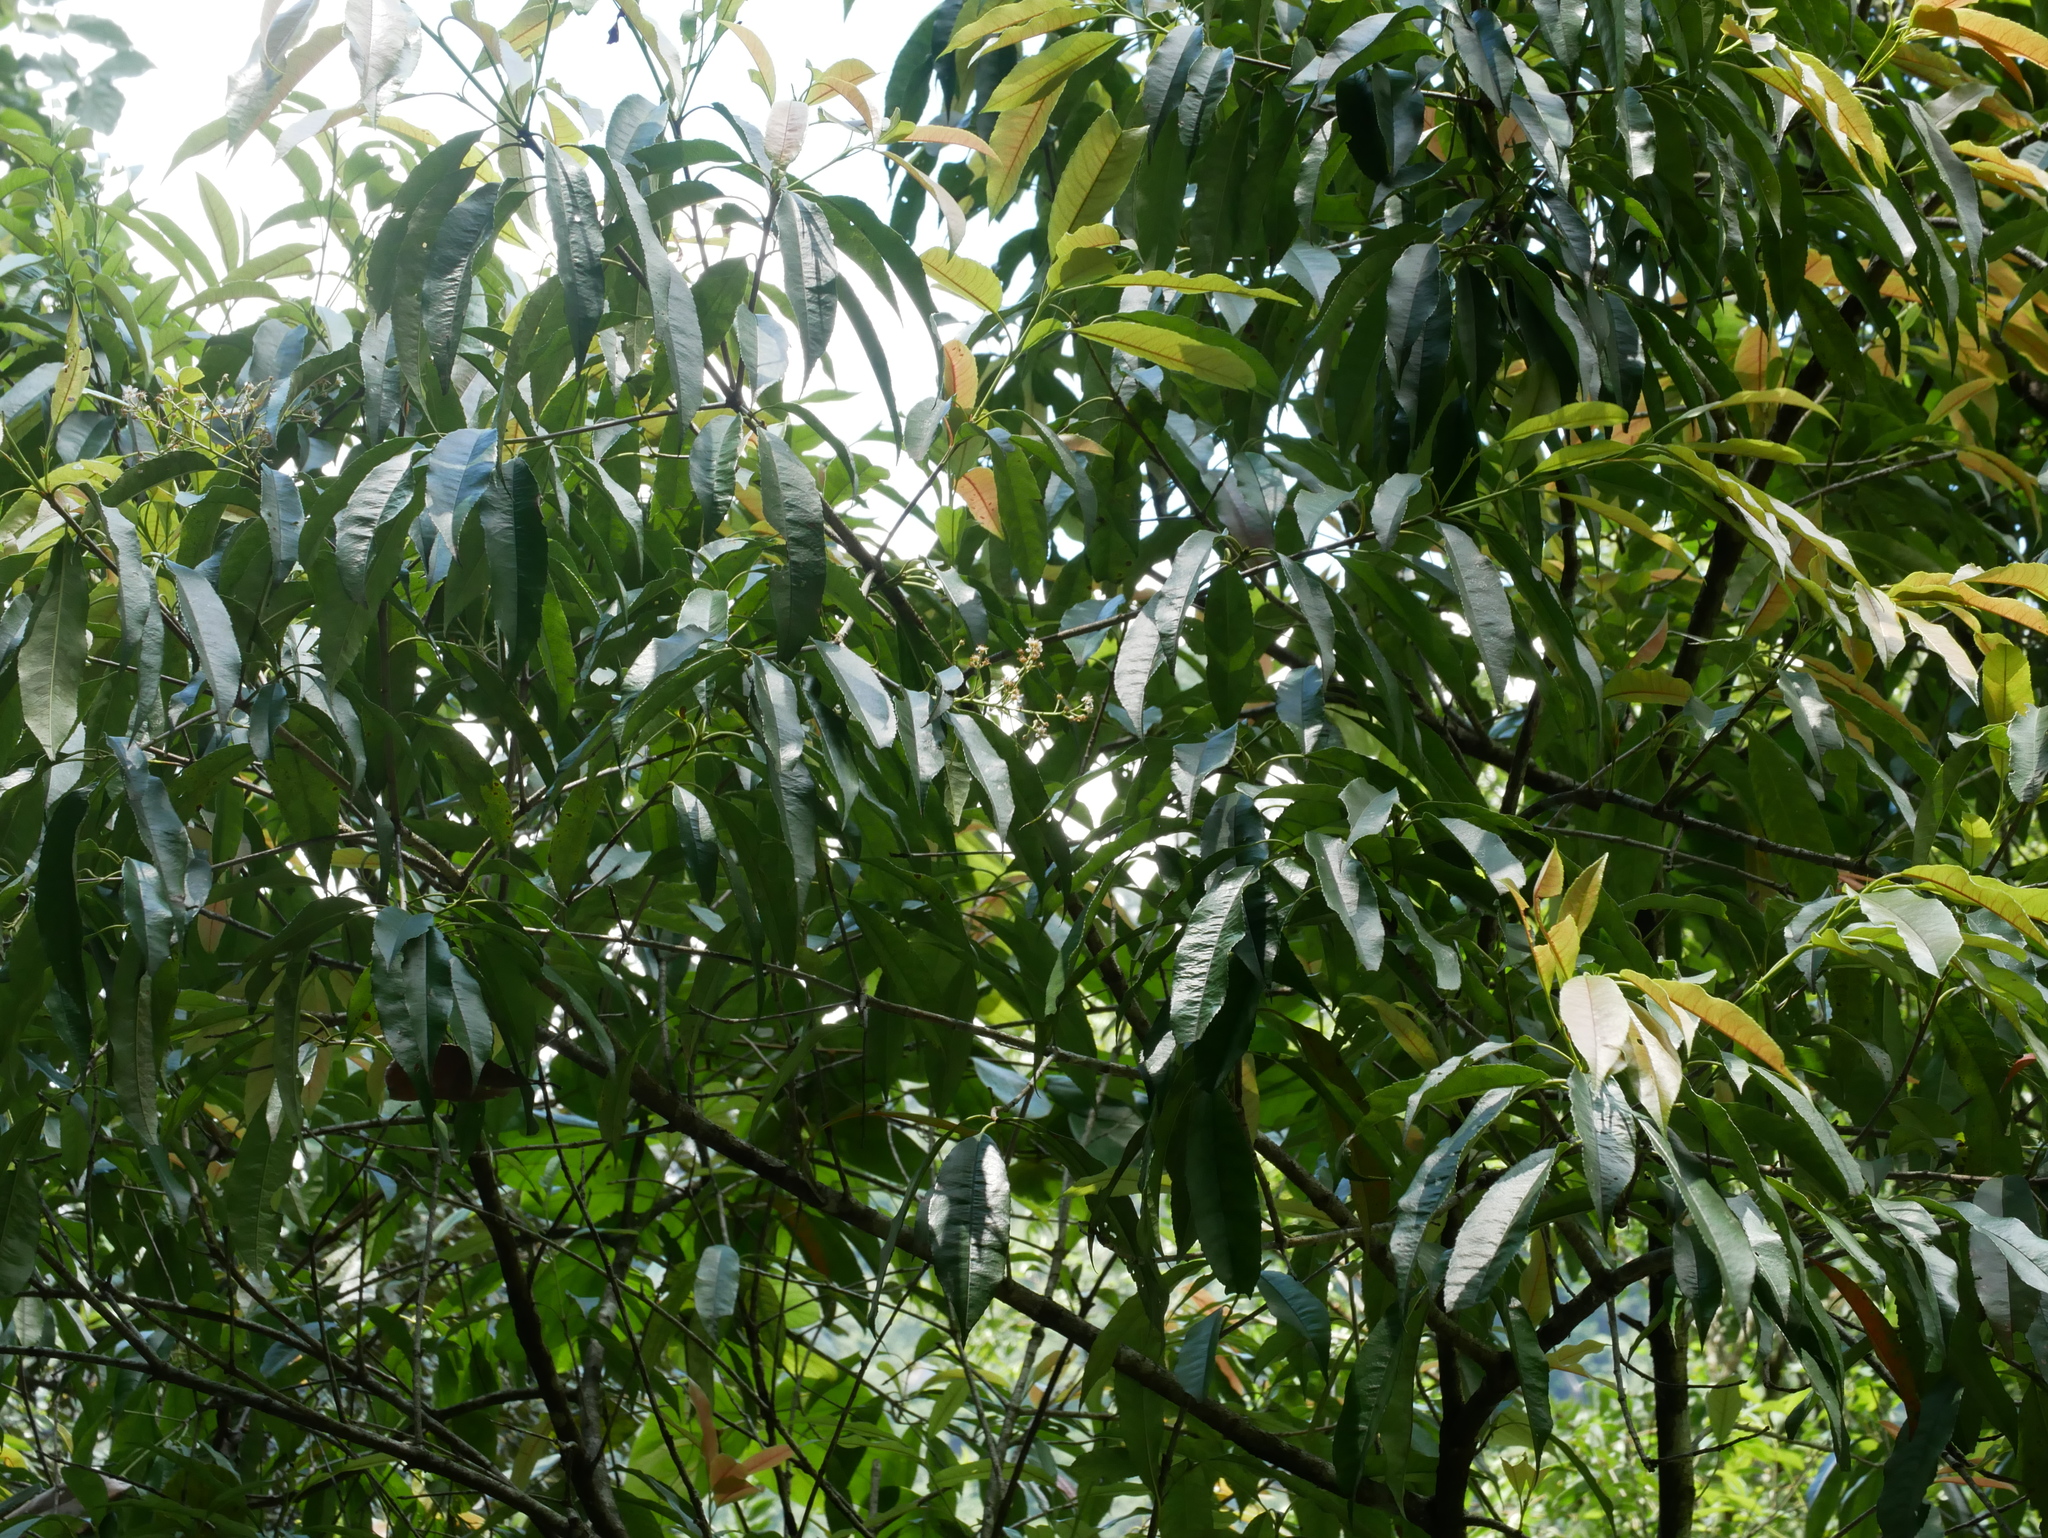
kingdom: Plantae
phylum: Tracheophyta
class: Magnoliopsida
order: Rosales
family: Rosaceae
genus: Photinia
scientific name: Photinia serratifolia
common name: Taiwanese photinia
